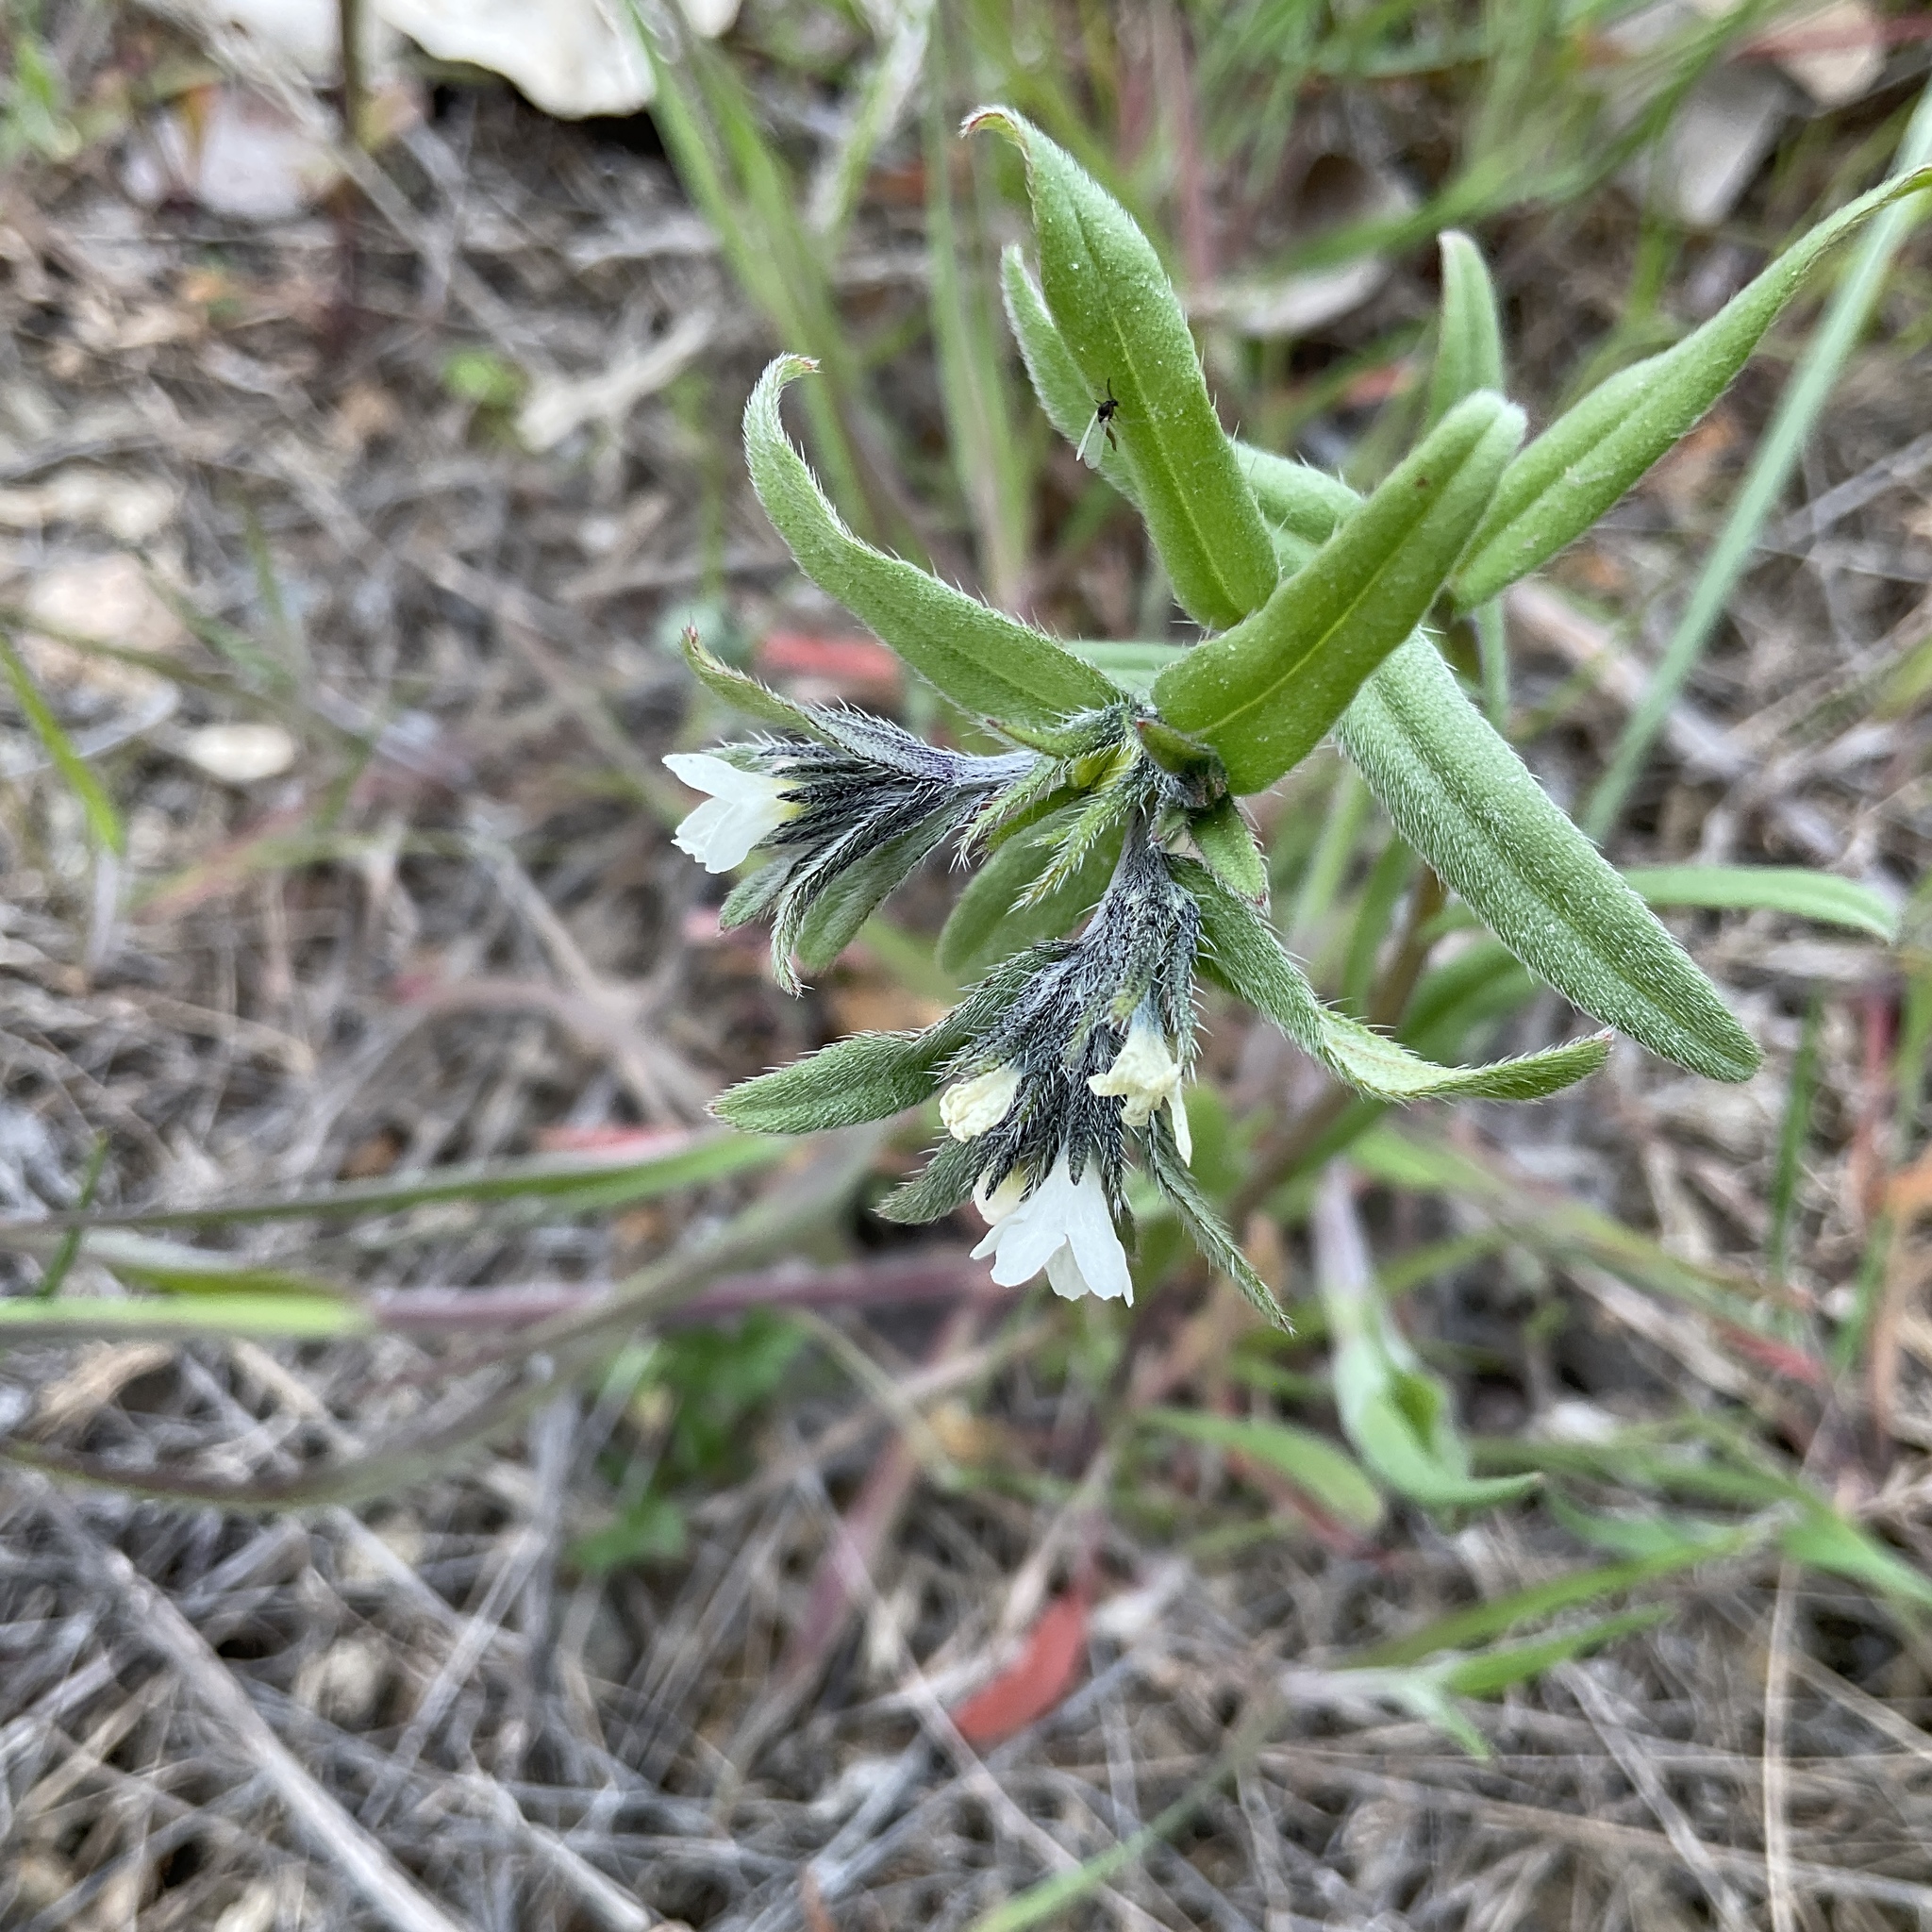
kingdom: Plantae
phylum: Tracheophyta
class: Magnoliopsida
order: Boraginales
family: Boraginaceae
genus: Buglossoides
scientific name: Buglossoides arvensis
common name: Corn gromwell
